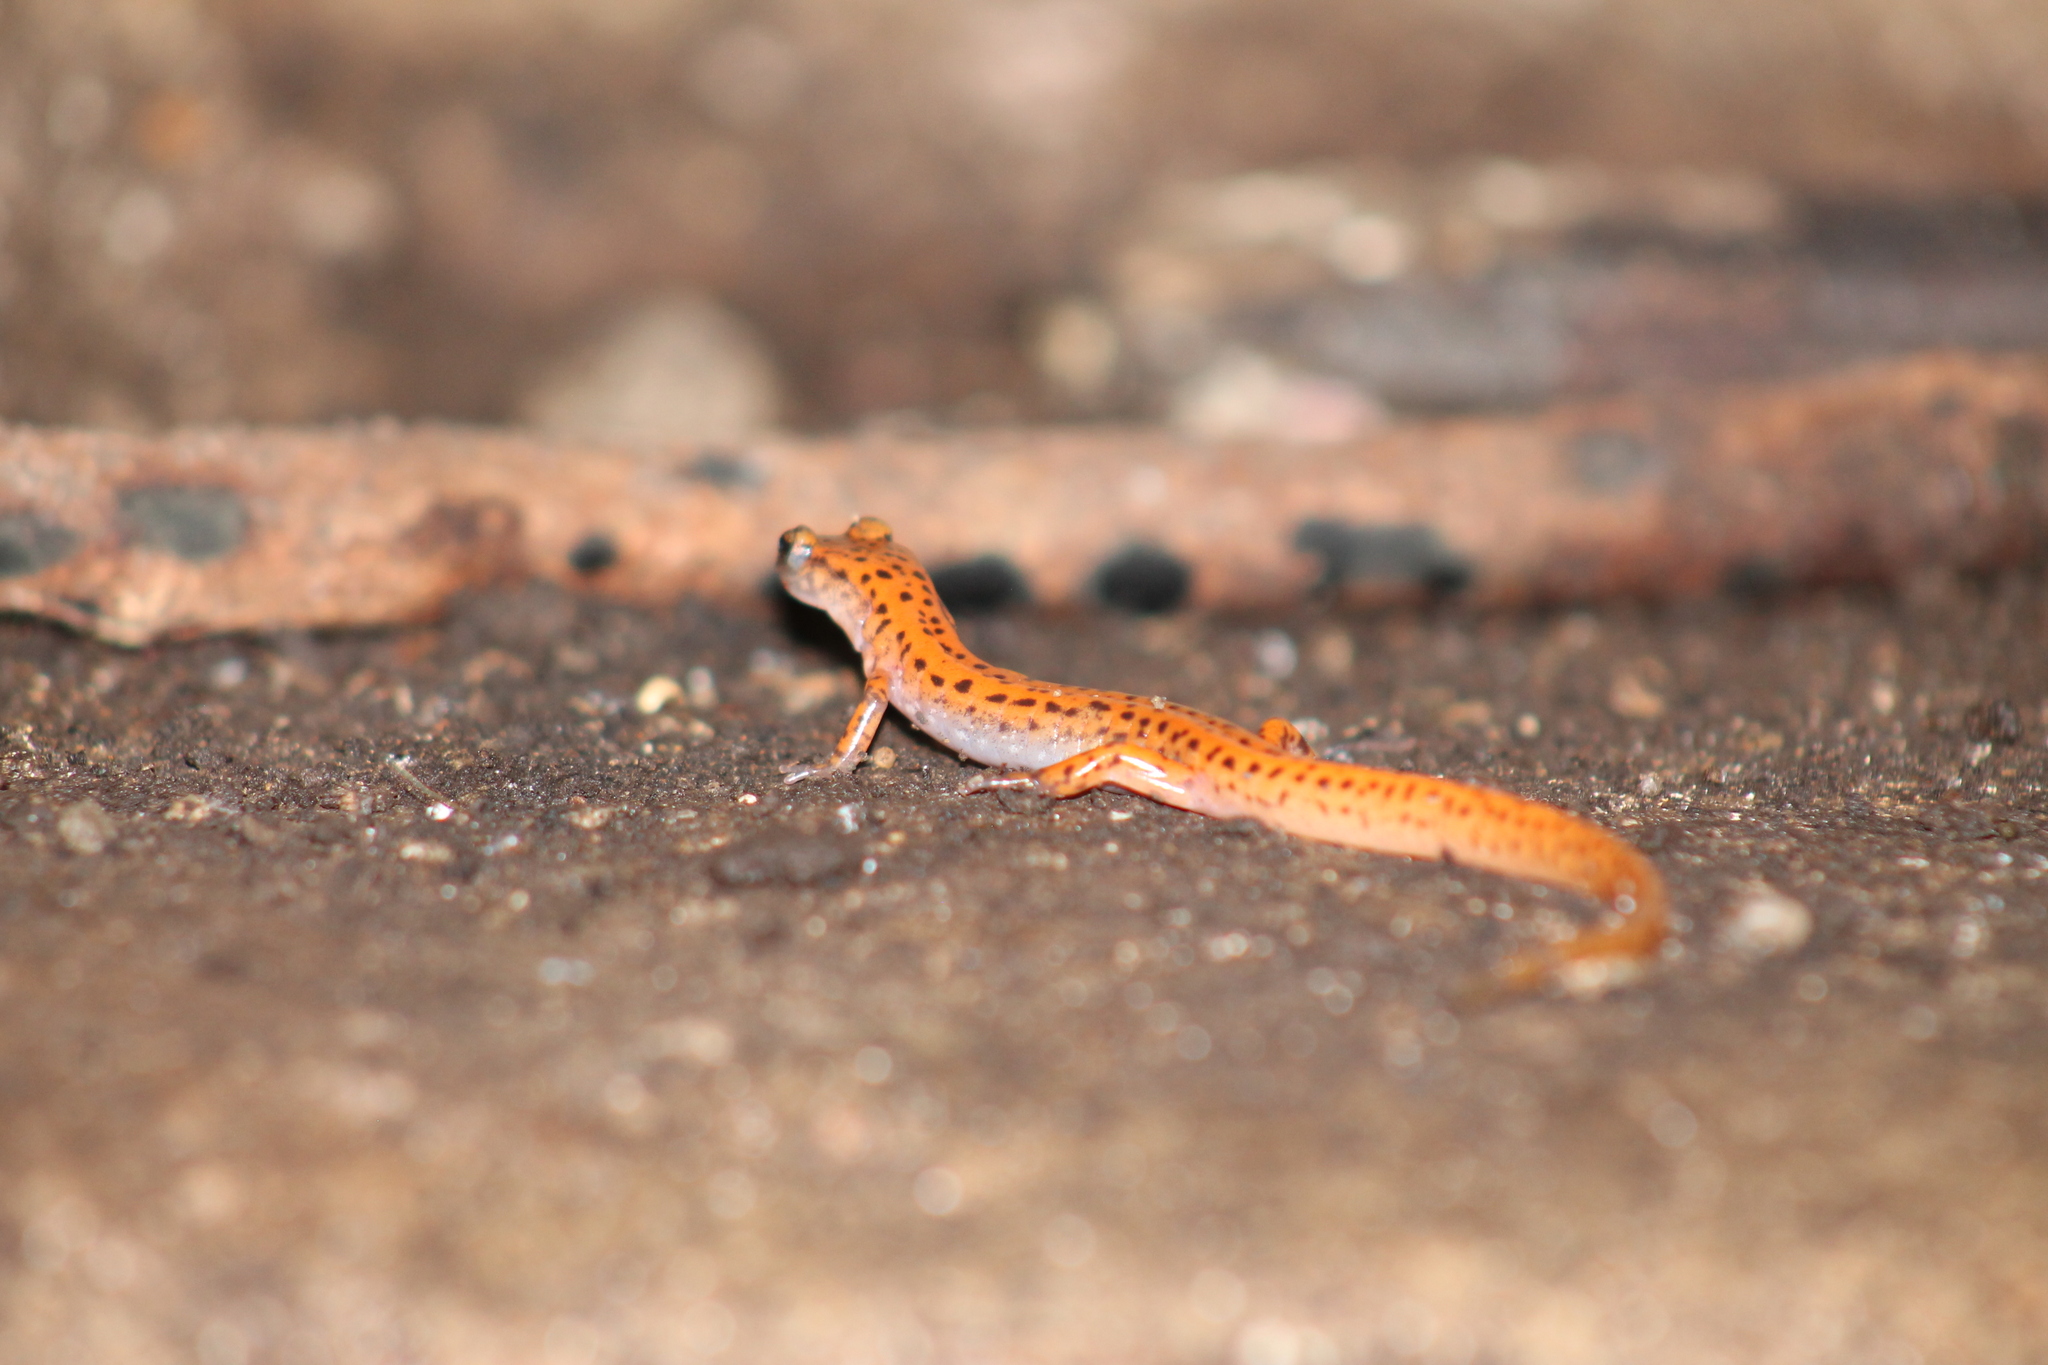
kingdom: Animalia
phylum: Chordata
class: Amphibia
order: Caudata
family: Plethodontidae
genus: Eurycea
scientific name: Eurycea lucifuga
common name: Cave salamander
